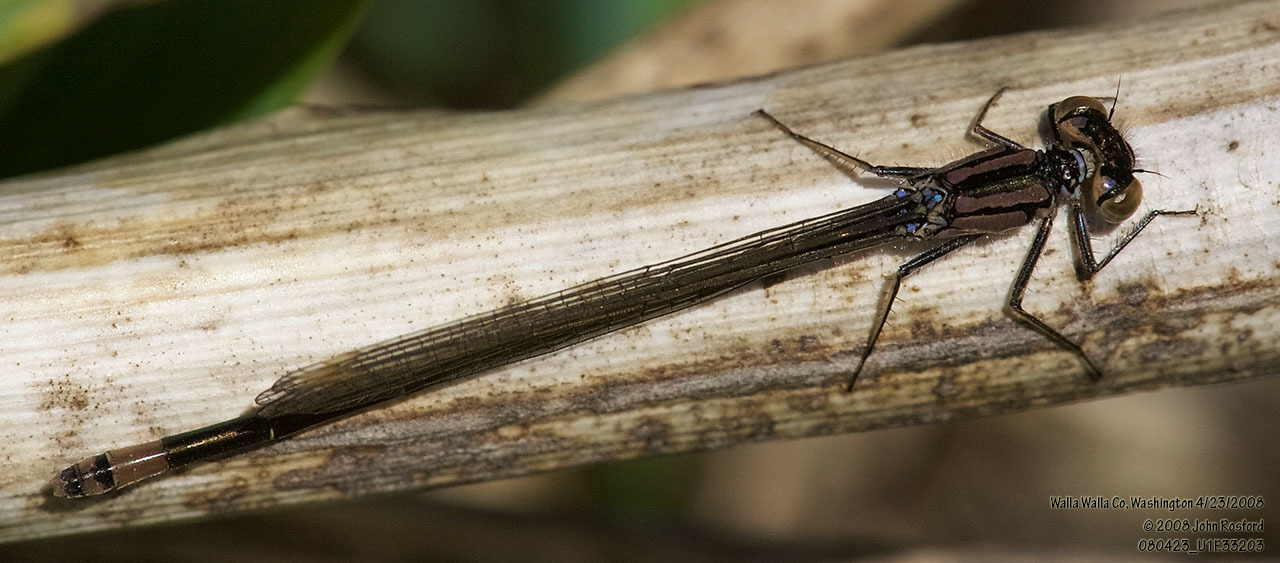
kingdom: Animalia
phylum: Arthropoda
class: Insecta
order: Odonata
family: Coenagrionidae
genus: Ischnura
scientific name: Ischnura cervula
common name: Pacific forktail
